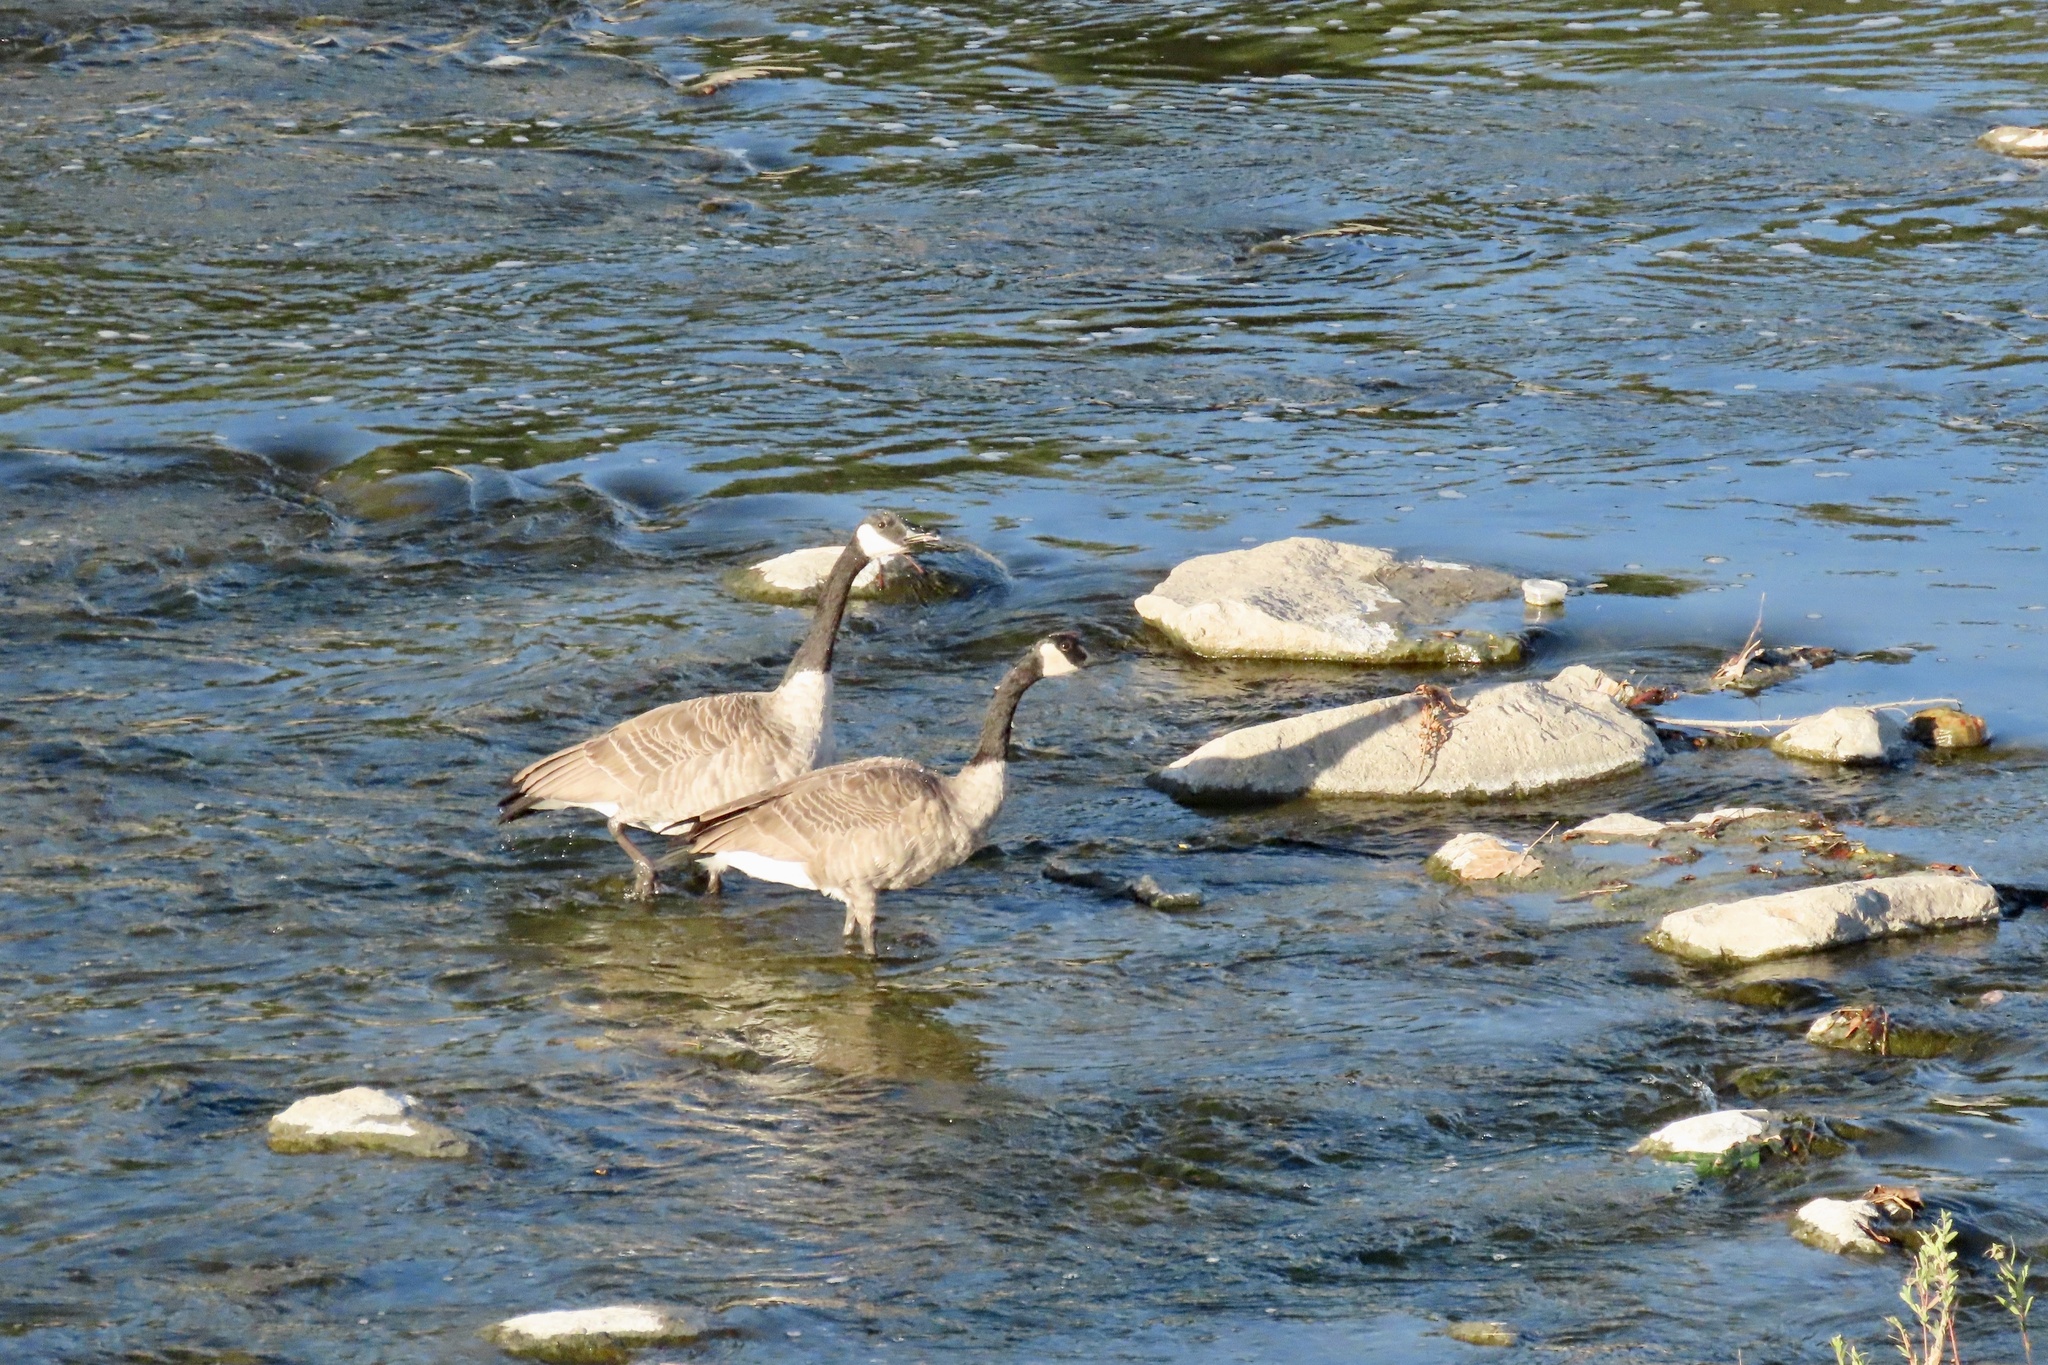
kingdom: Animalia
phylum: Chordata
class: Aves
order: Anseriformes
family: Anatidae
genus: Branta
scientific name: Branta canadensis
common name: Canada goose
